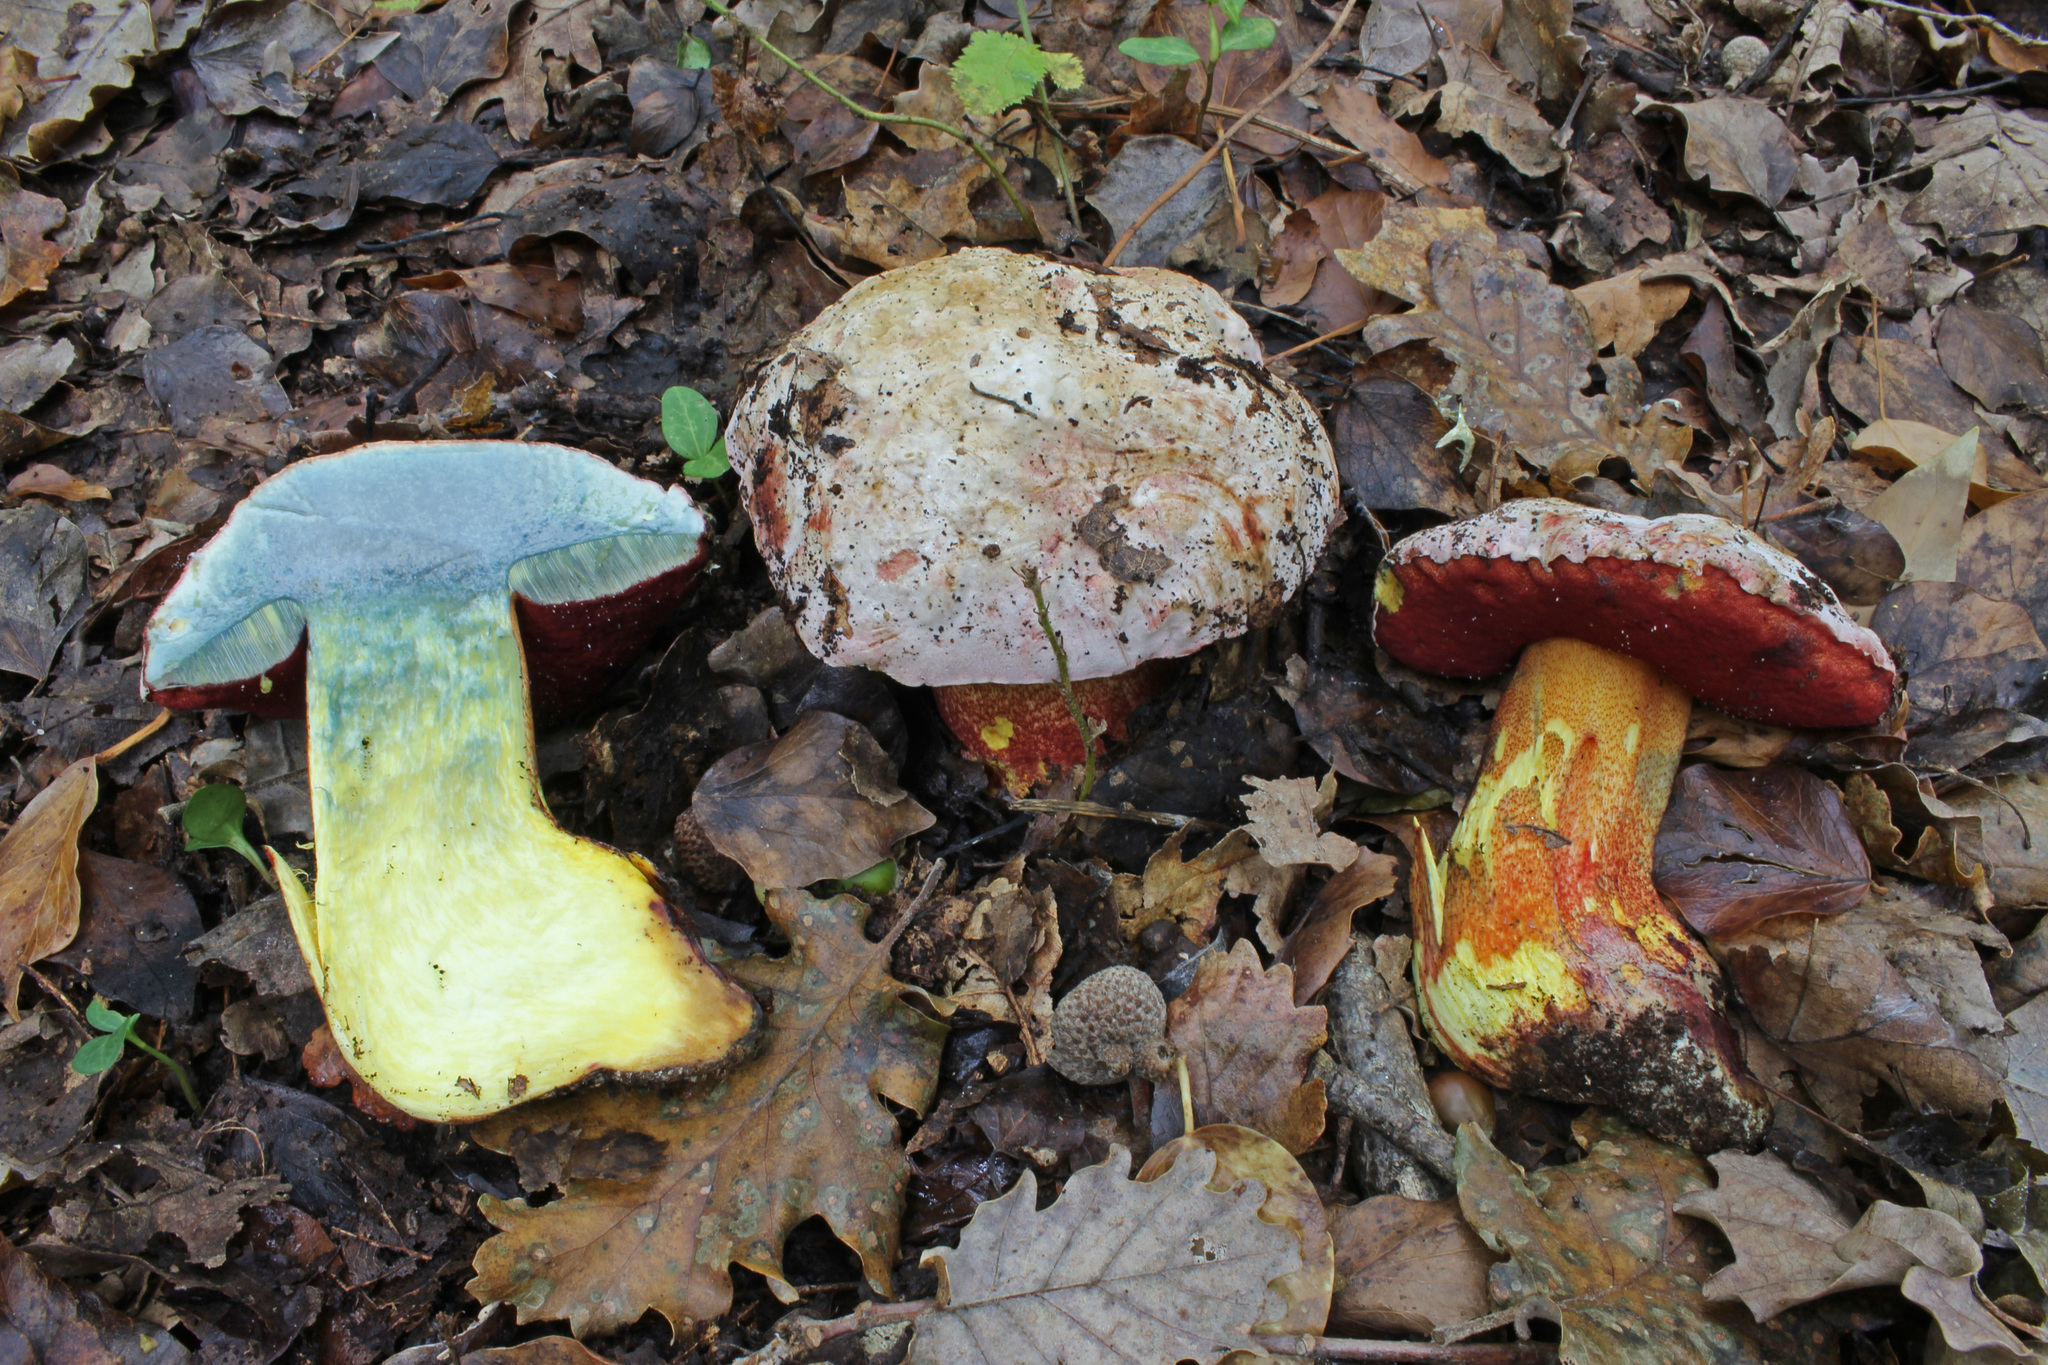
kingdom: Fungi
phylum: Basidiomycota
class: Agaricomycetes
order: Boletales
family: Boletaceae
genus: Rubroboletus
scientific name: Rubroboletus rhodoxanthus
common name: Ruddy bolete
